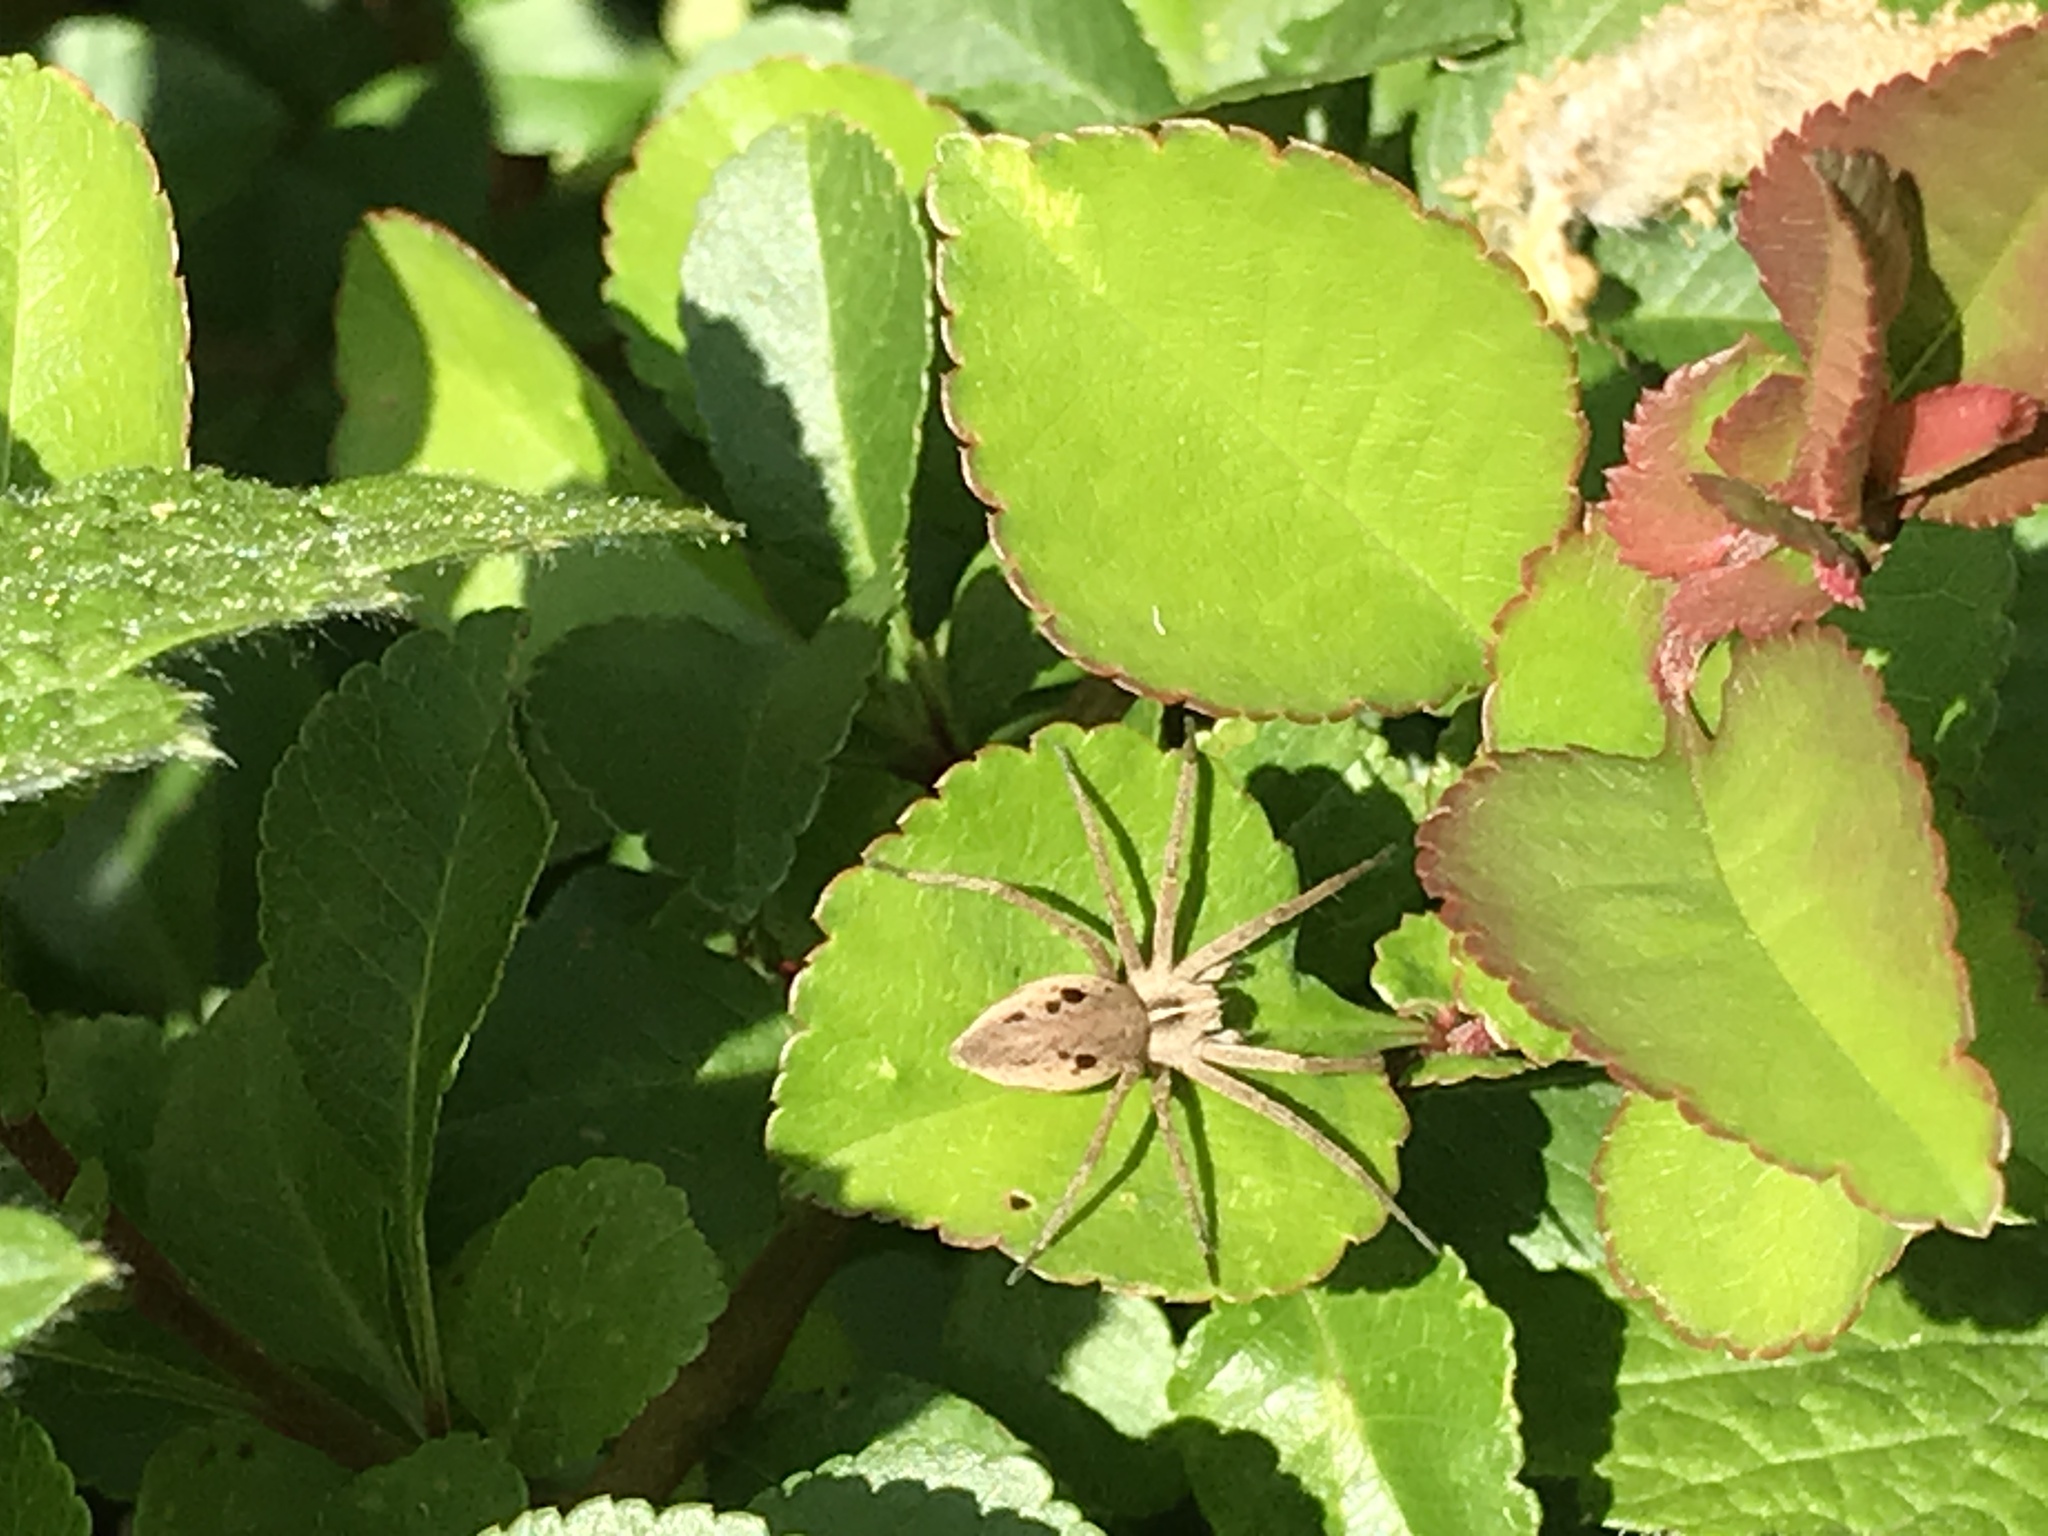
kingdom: Animalia
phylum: Arthropoda
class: Arachnida
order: Araneae
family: Pisauridae
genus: Pisaura
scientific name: Pisaura mirabilis
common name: Tent spider
